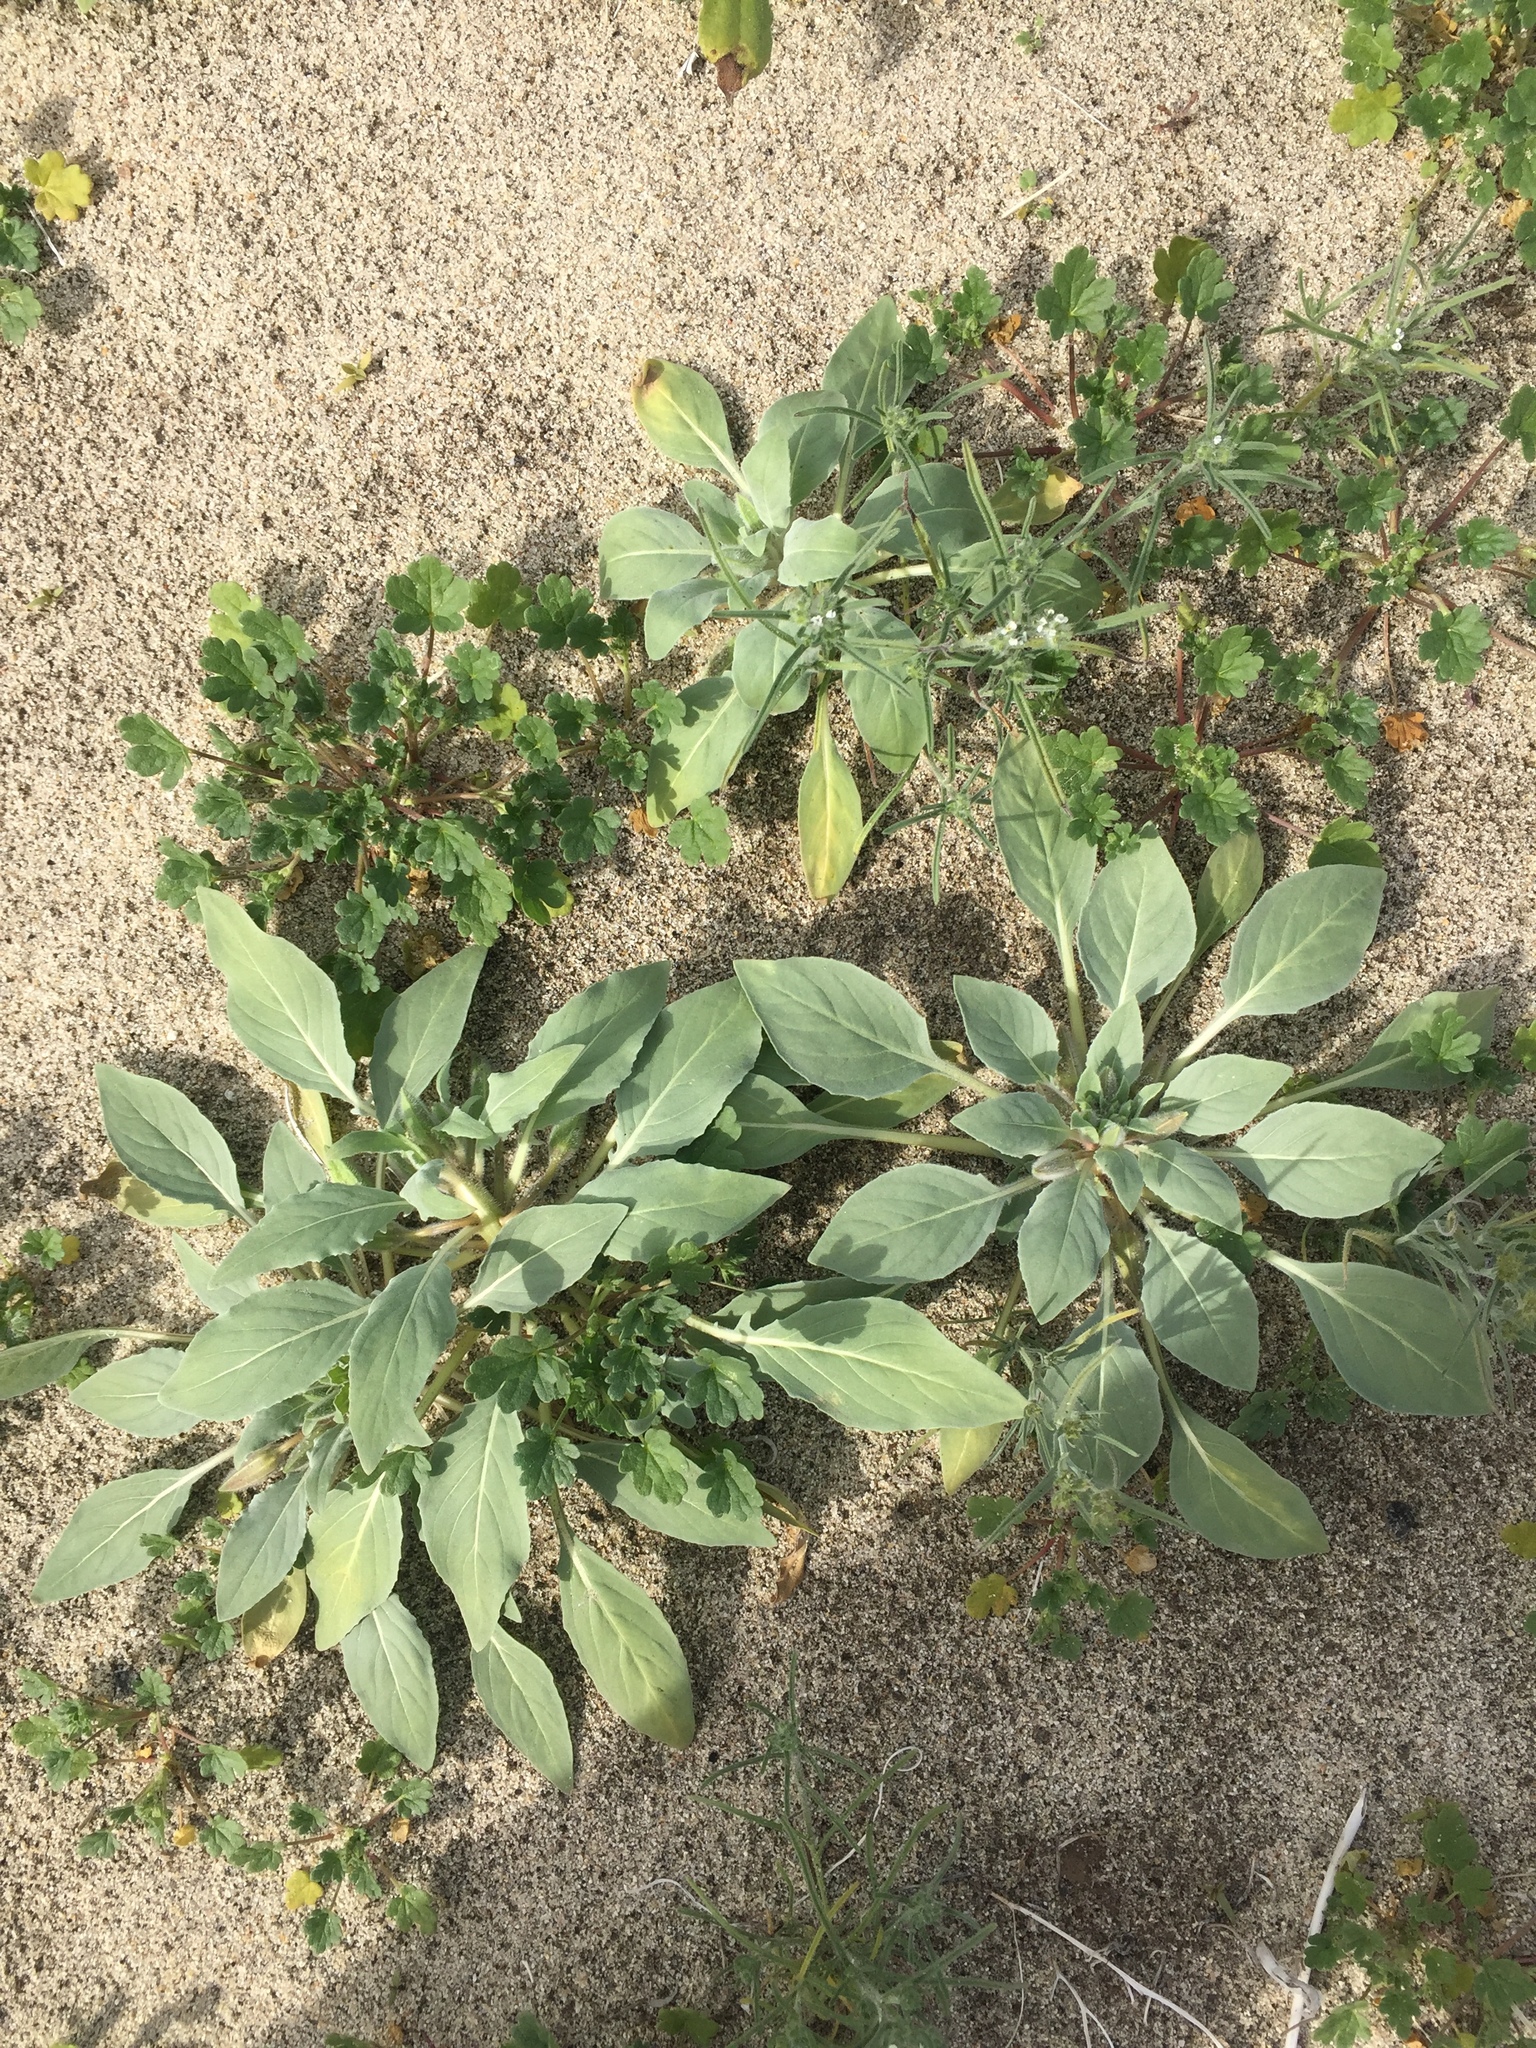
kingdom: Plantae
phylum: Tracheophyta
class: Magnoliopsida
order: Myrtales
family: Onagraceae
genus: Oenothera
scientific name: Oenothera deltoides
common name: Basket evening-primrose
